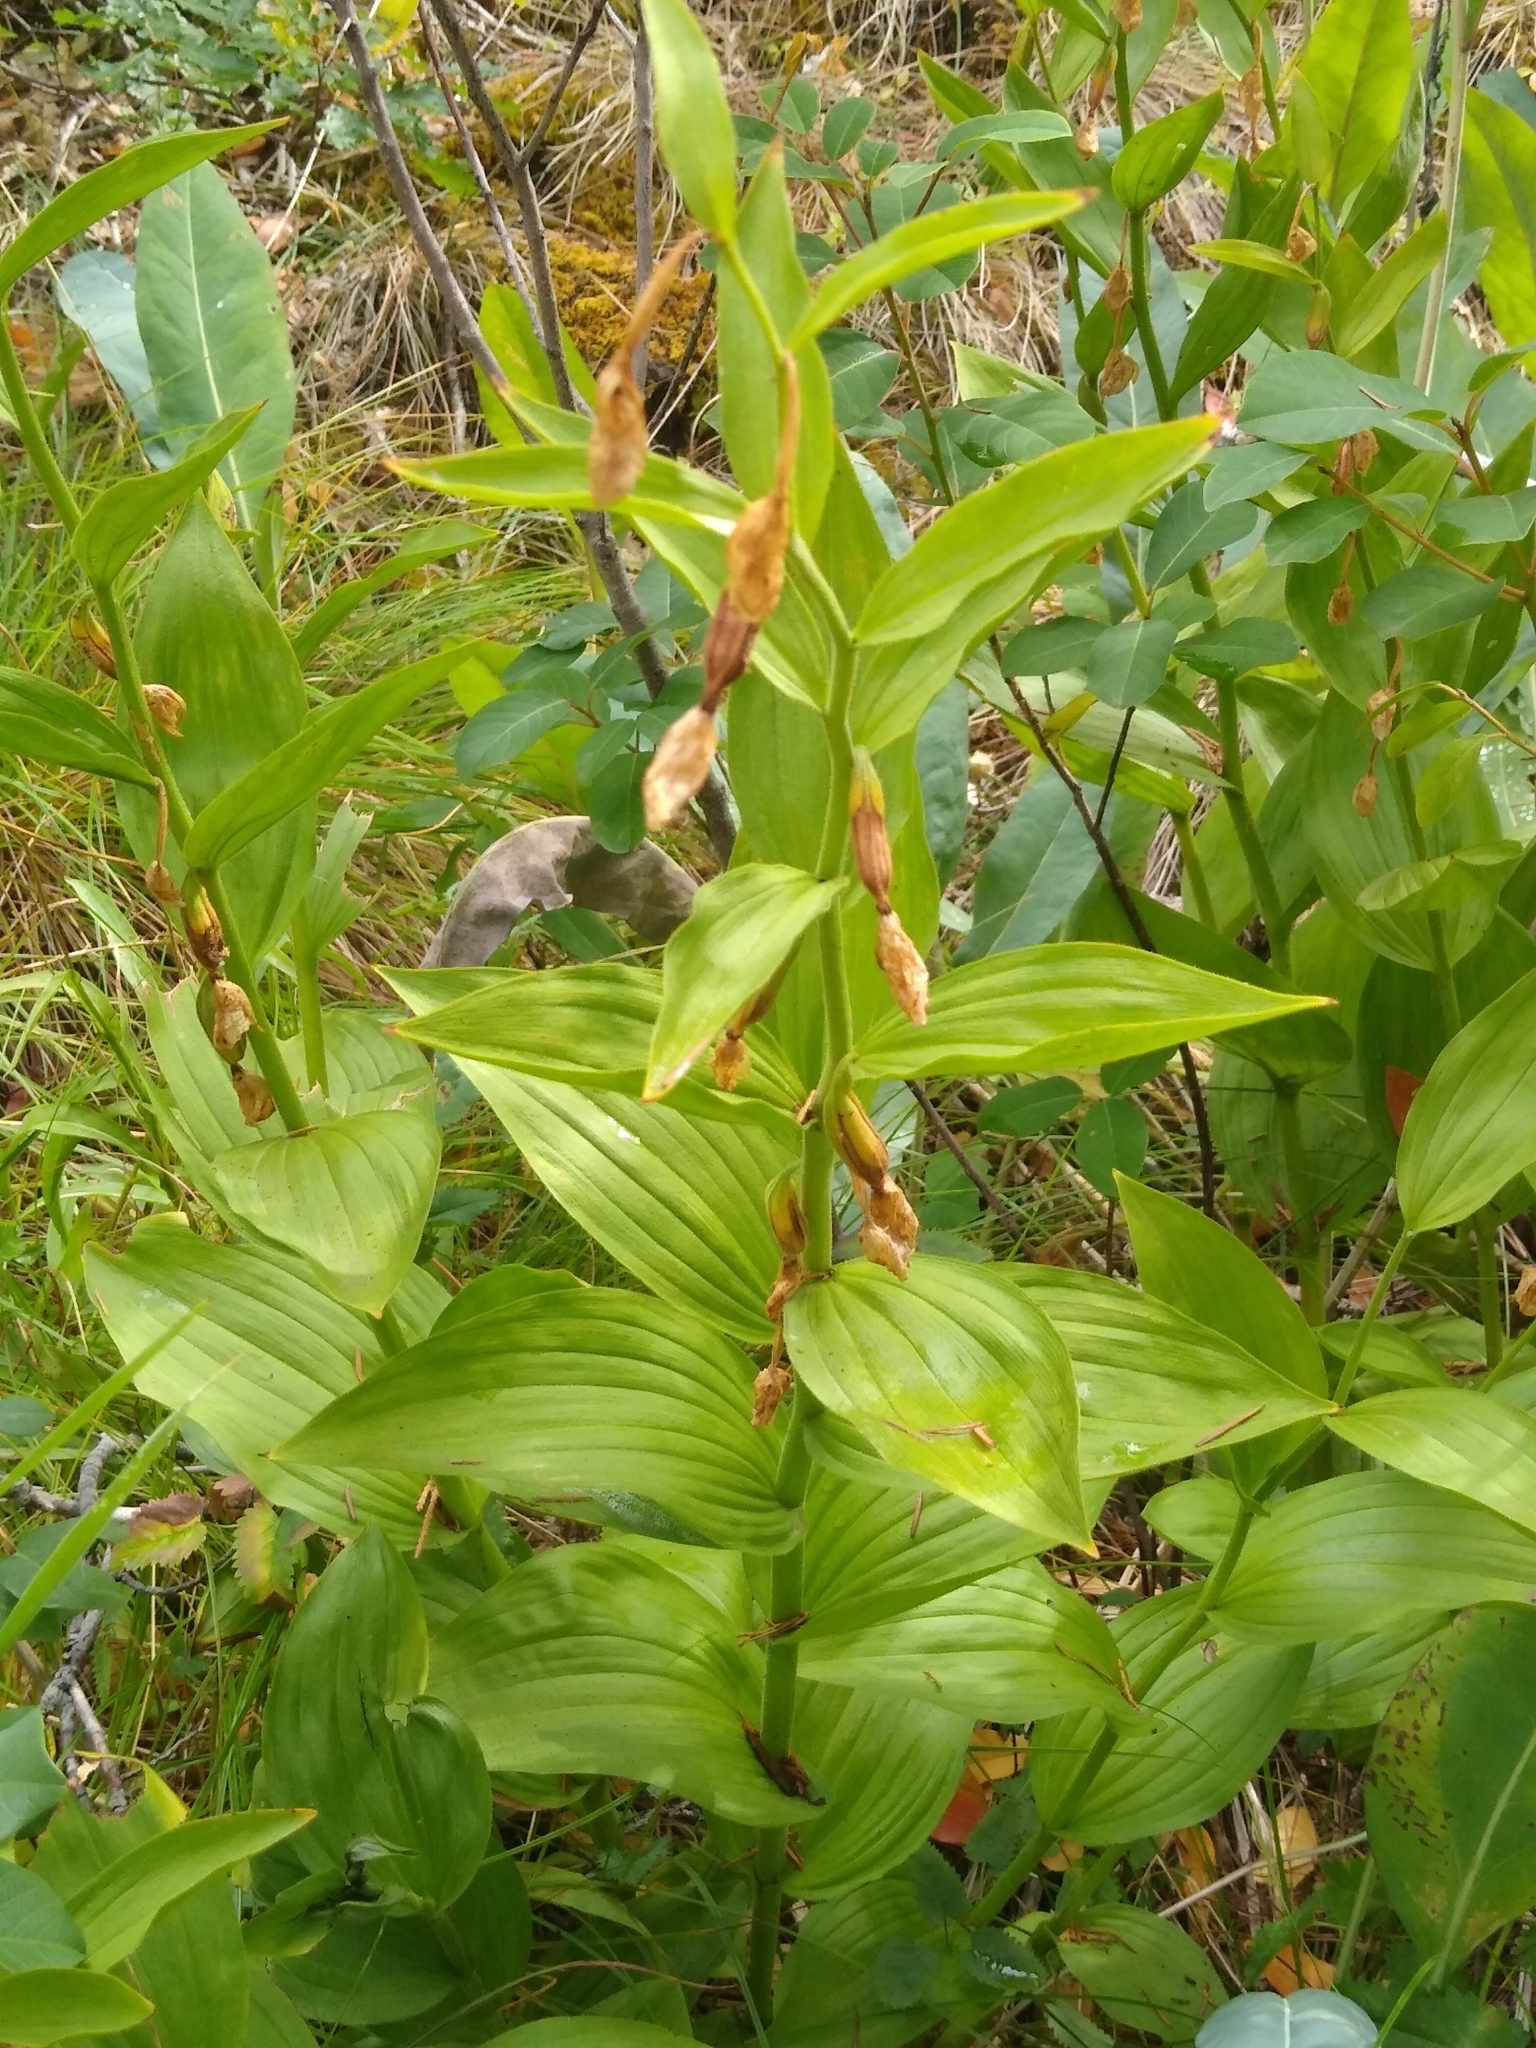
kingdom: Plantae
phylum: Tracheophyta
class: Liliopsida
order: Asparagales
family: Orchidaceae
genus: Epipactis
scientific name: Epipactis gigantea
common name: Chatterbox
